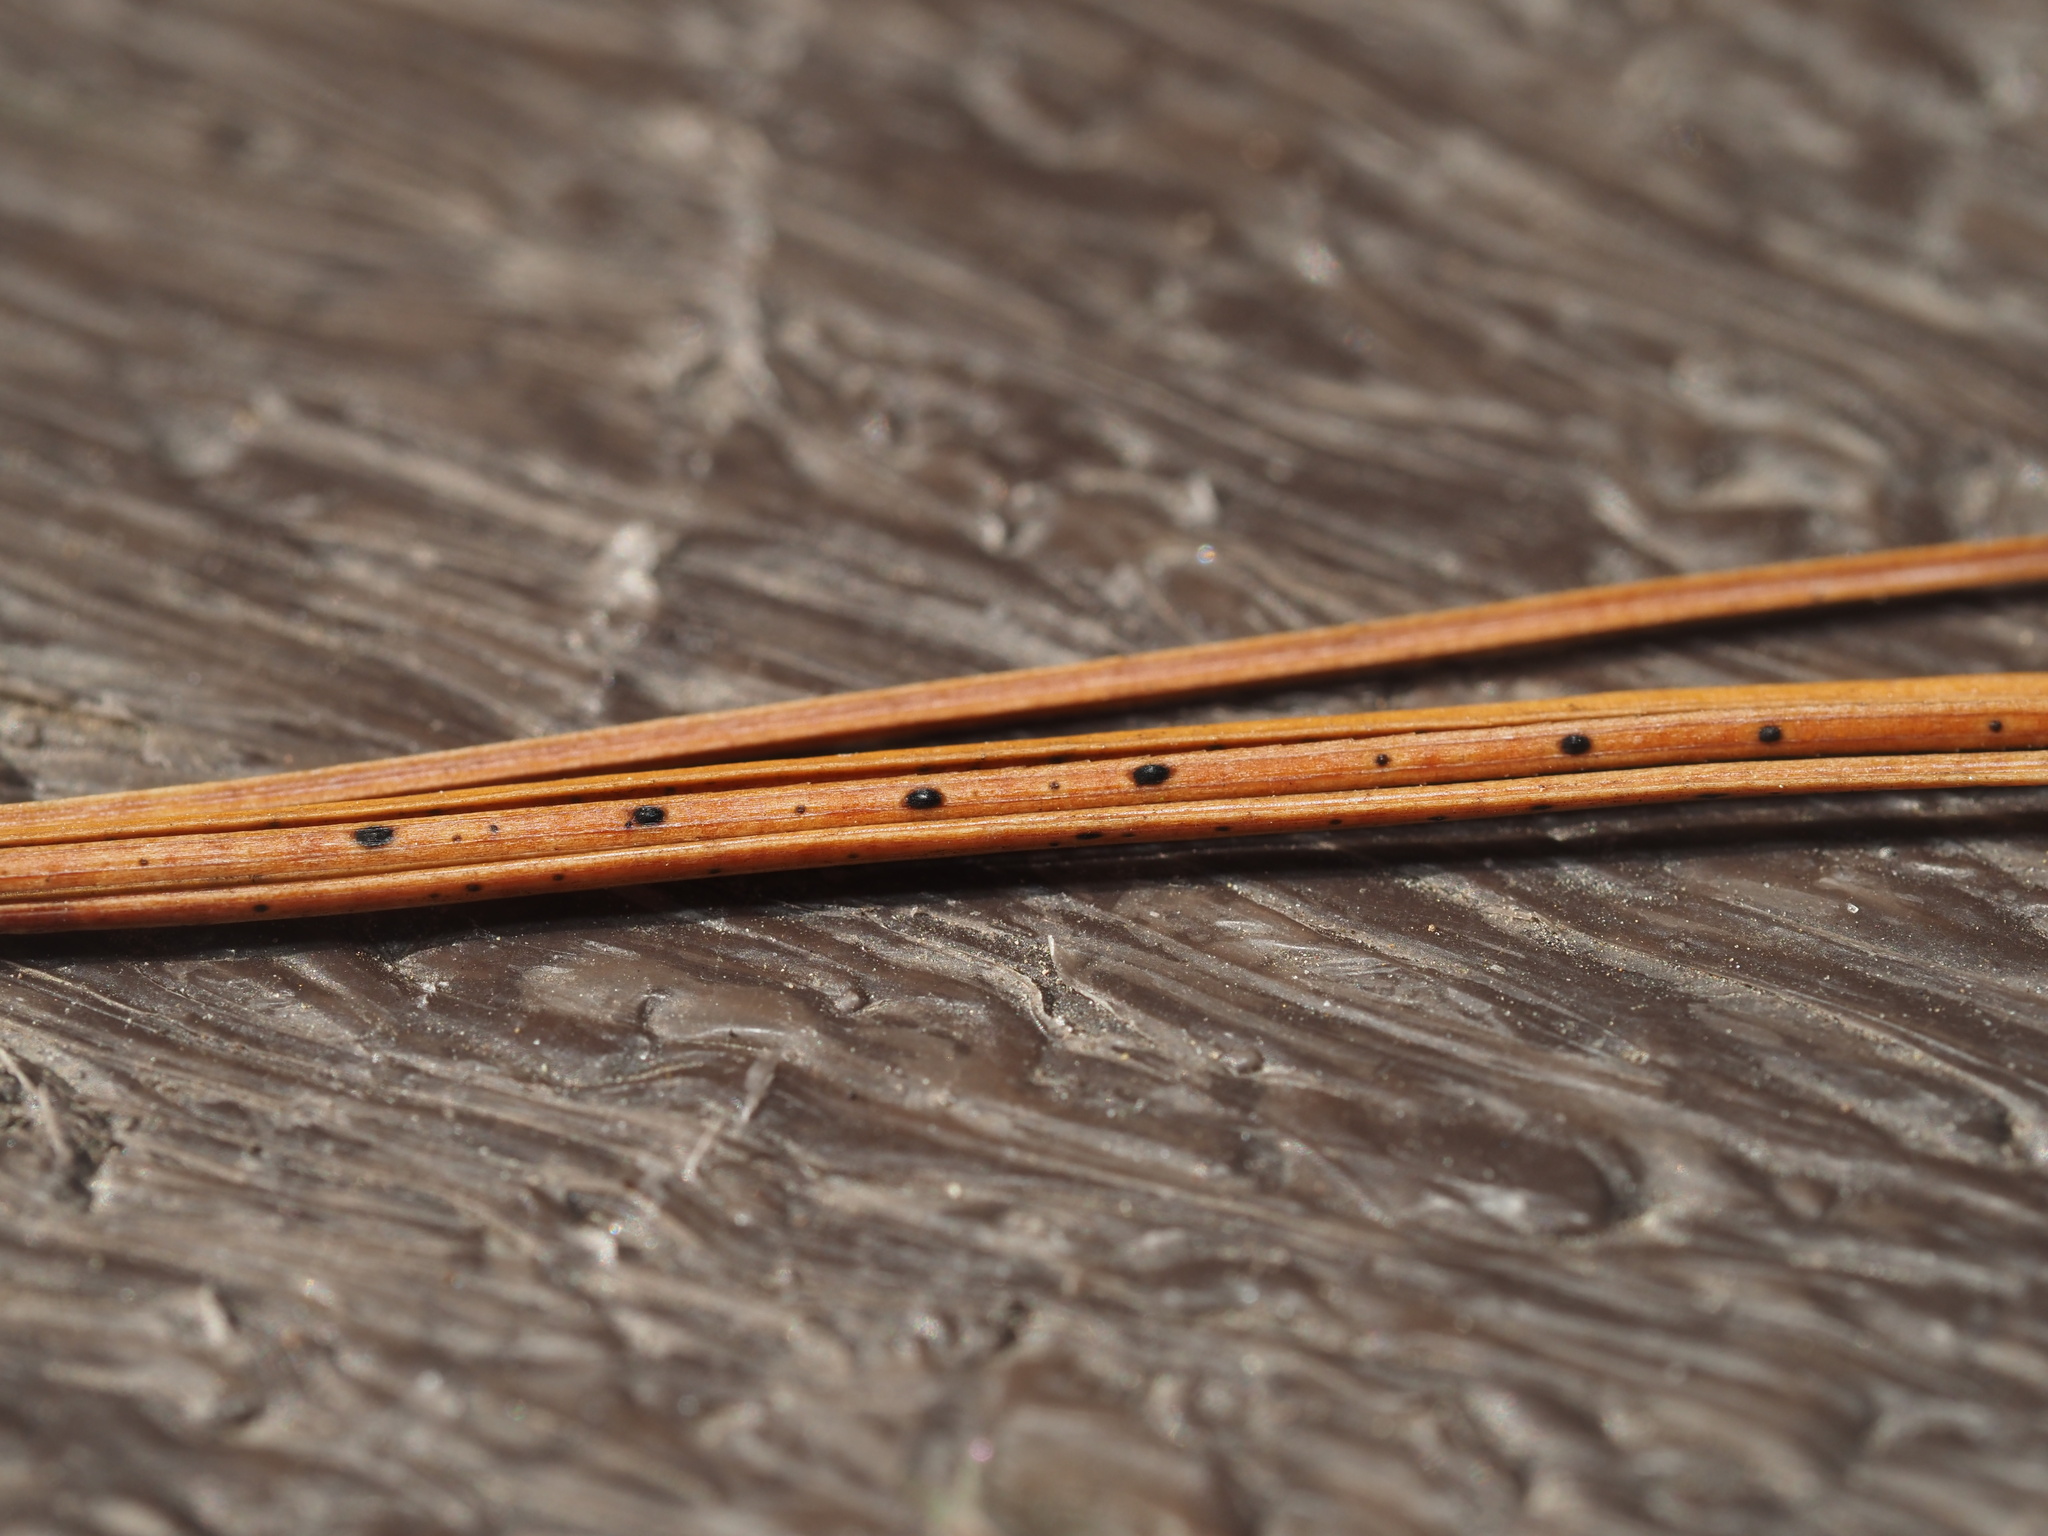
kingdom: Fungi
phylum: Ascomycota
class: Leotiomycetes
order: Rhytismatales
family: Rhytismataceae
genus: Lophodermium
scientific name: Lophodermium pinastri
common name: Pine needle split
